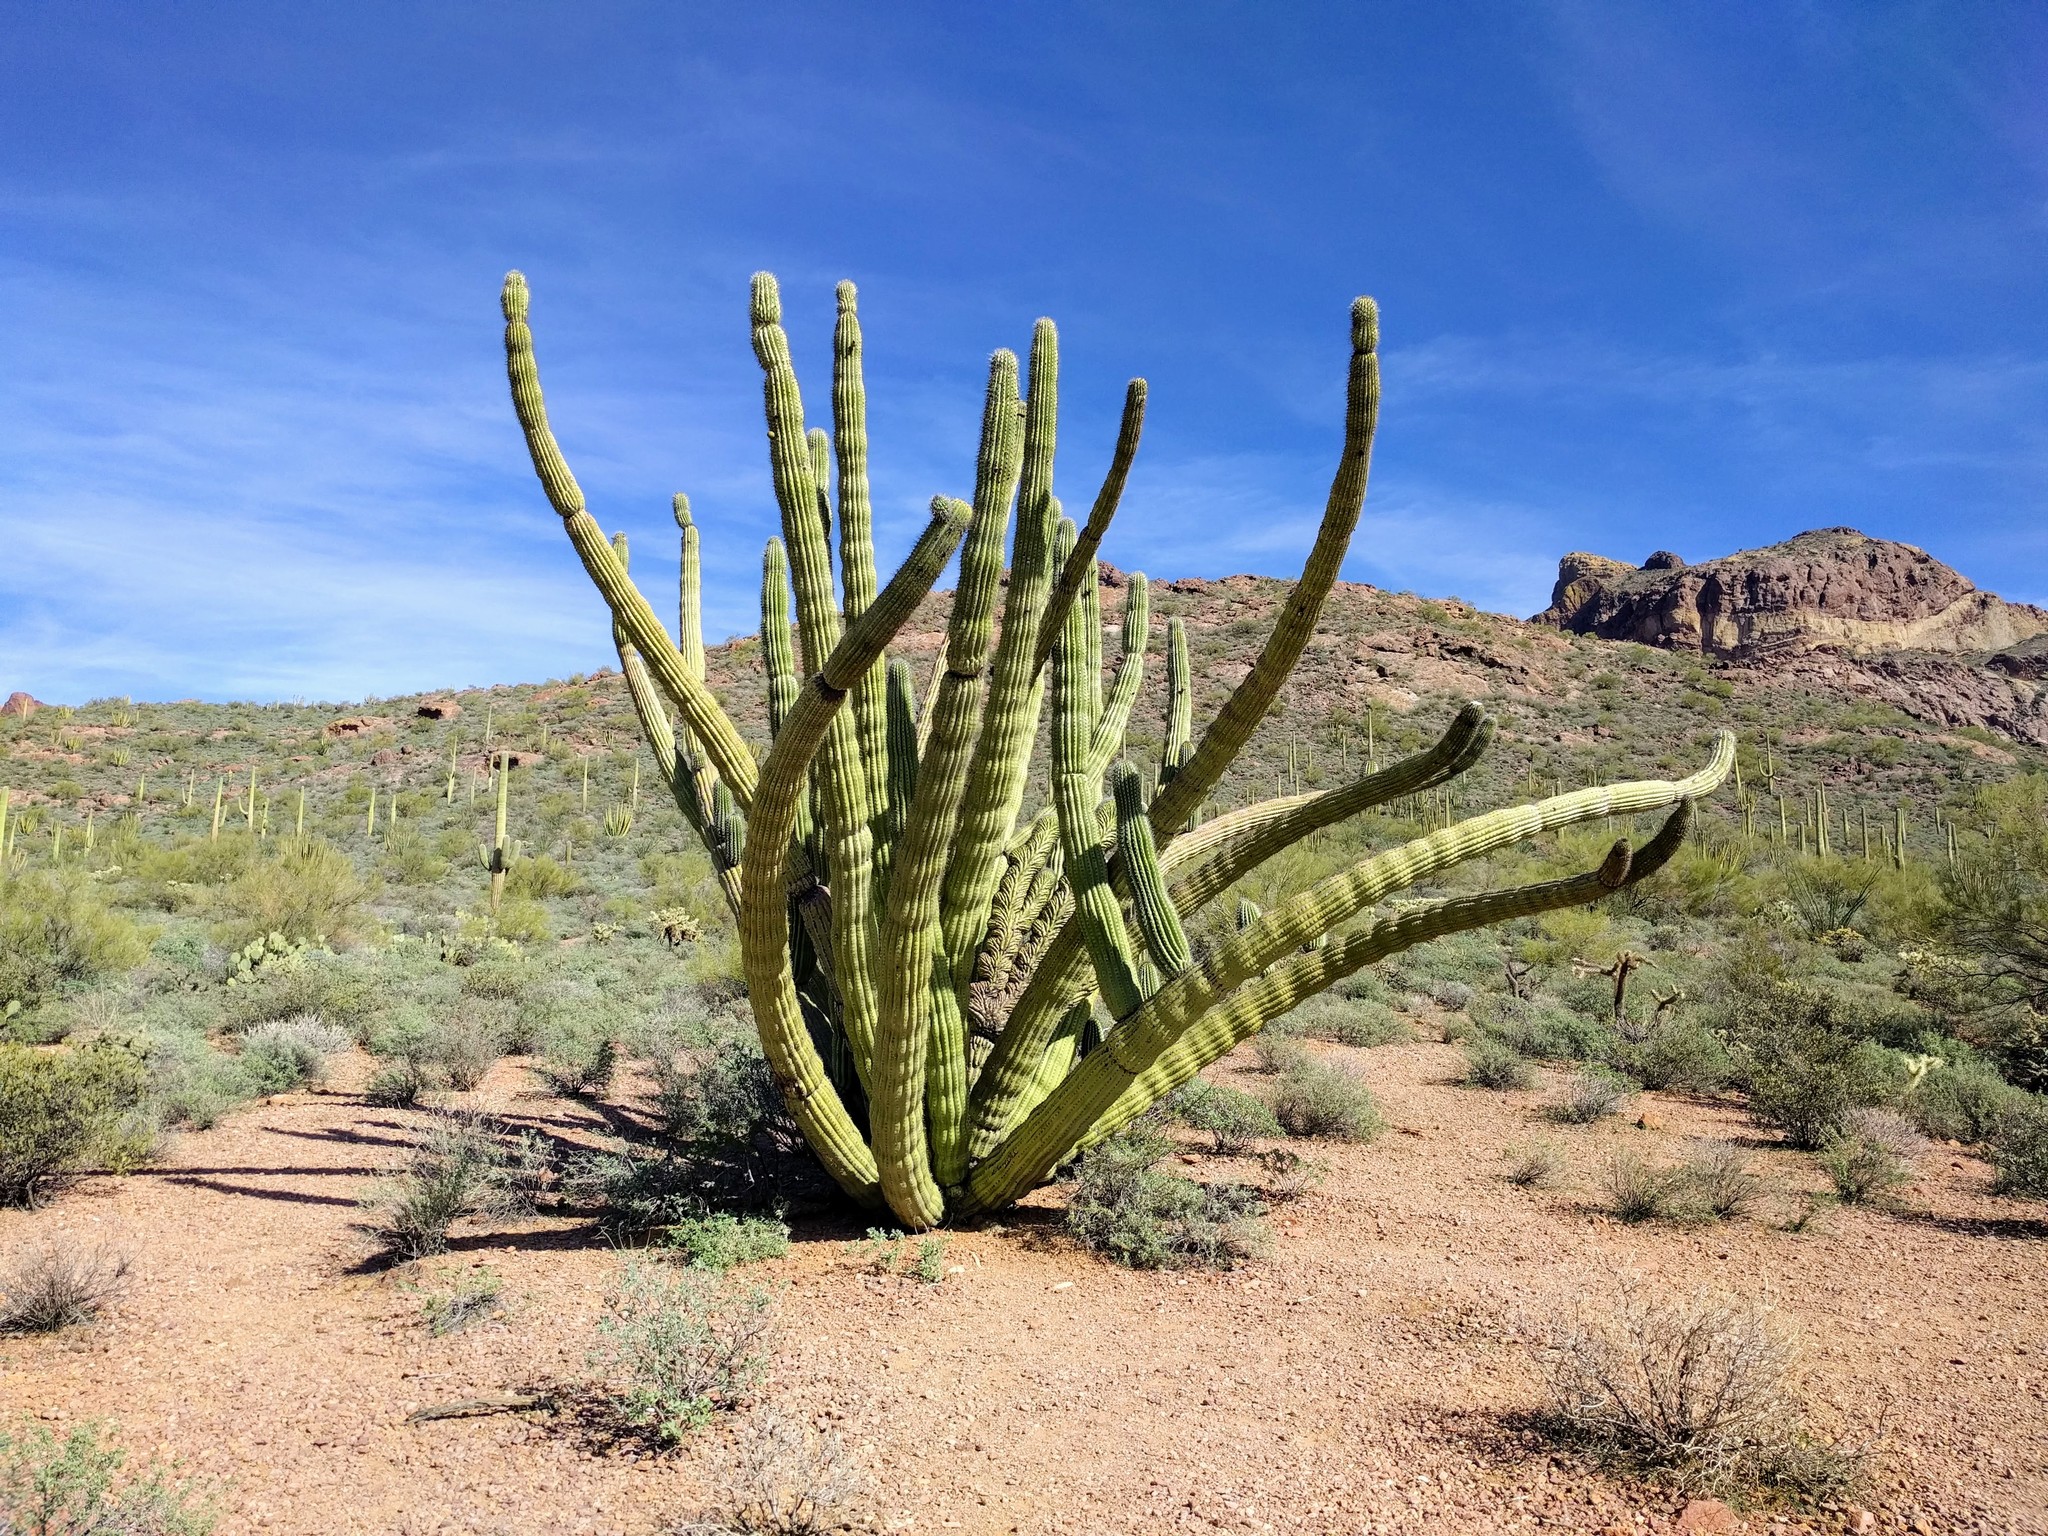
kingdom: Plantae
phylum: Tracheophyta
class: Magnoliopsida
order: Caryophyllales
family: Cactaceae
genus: Stenocereus
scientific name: Stenocereus thurberi
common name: Organ pipe cactus
